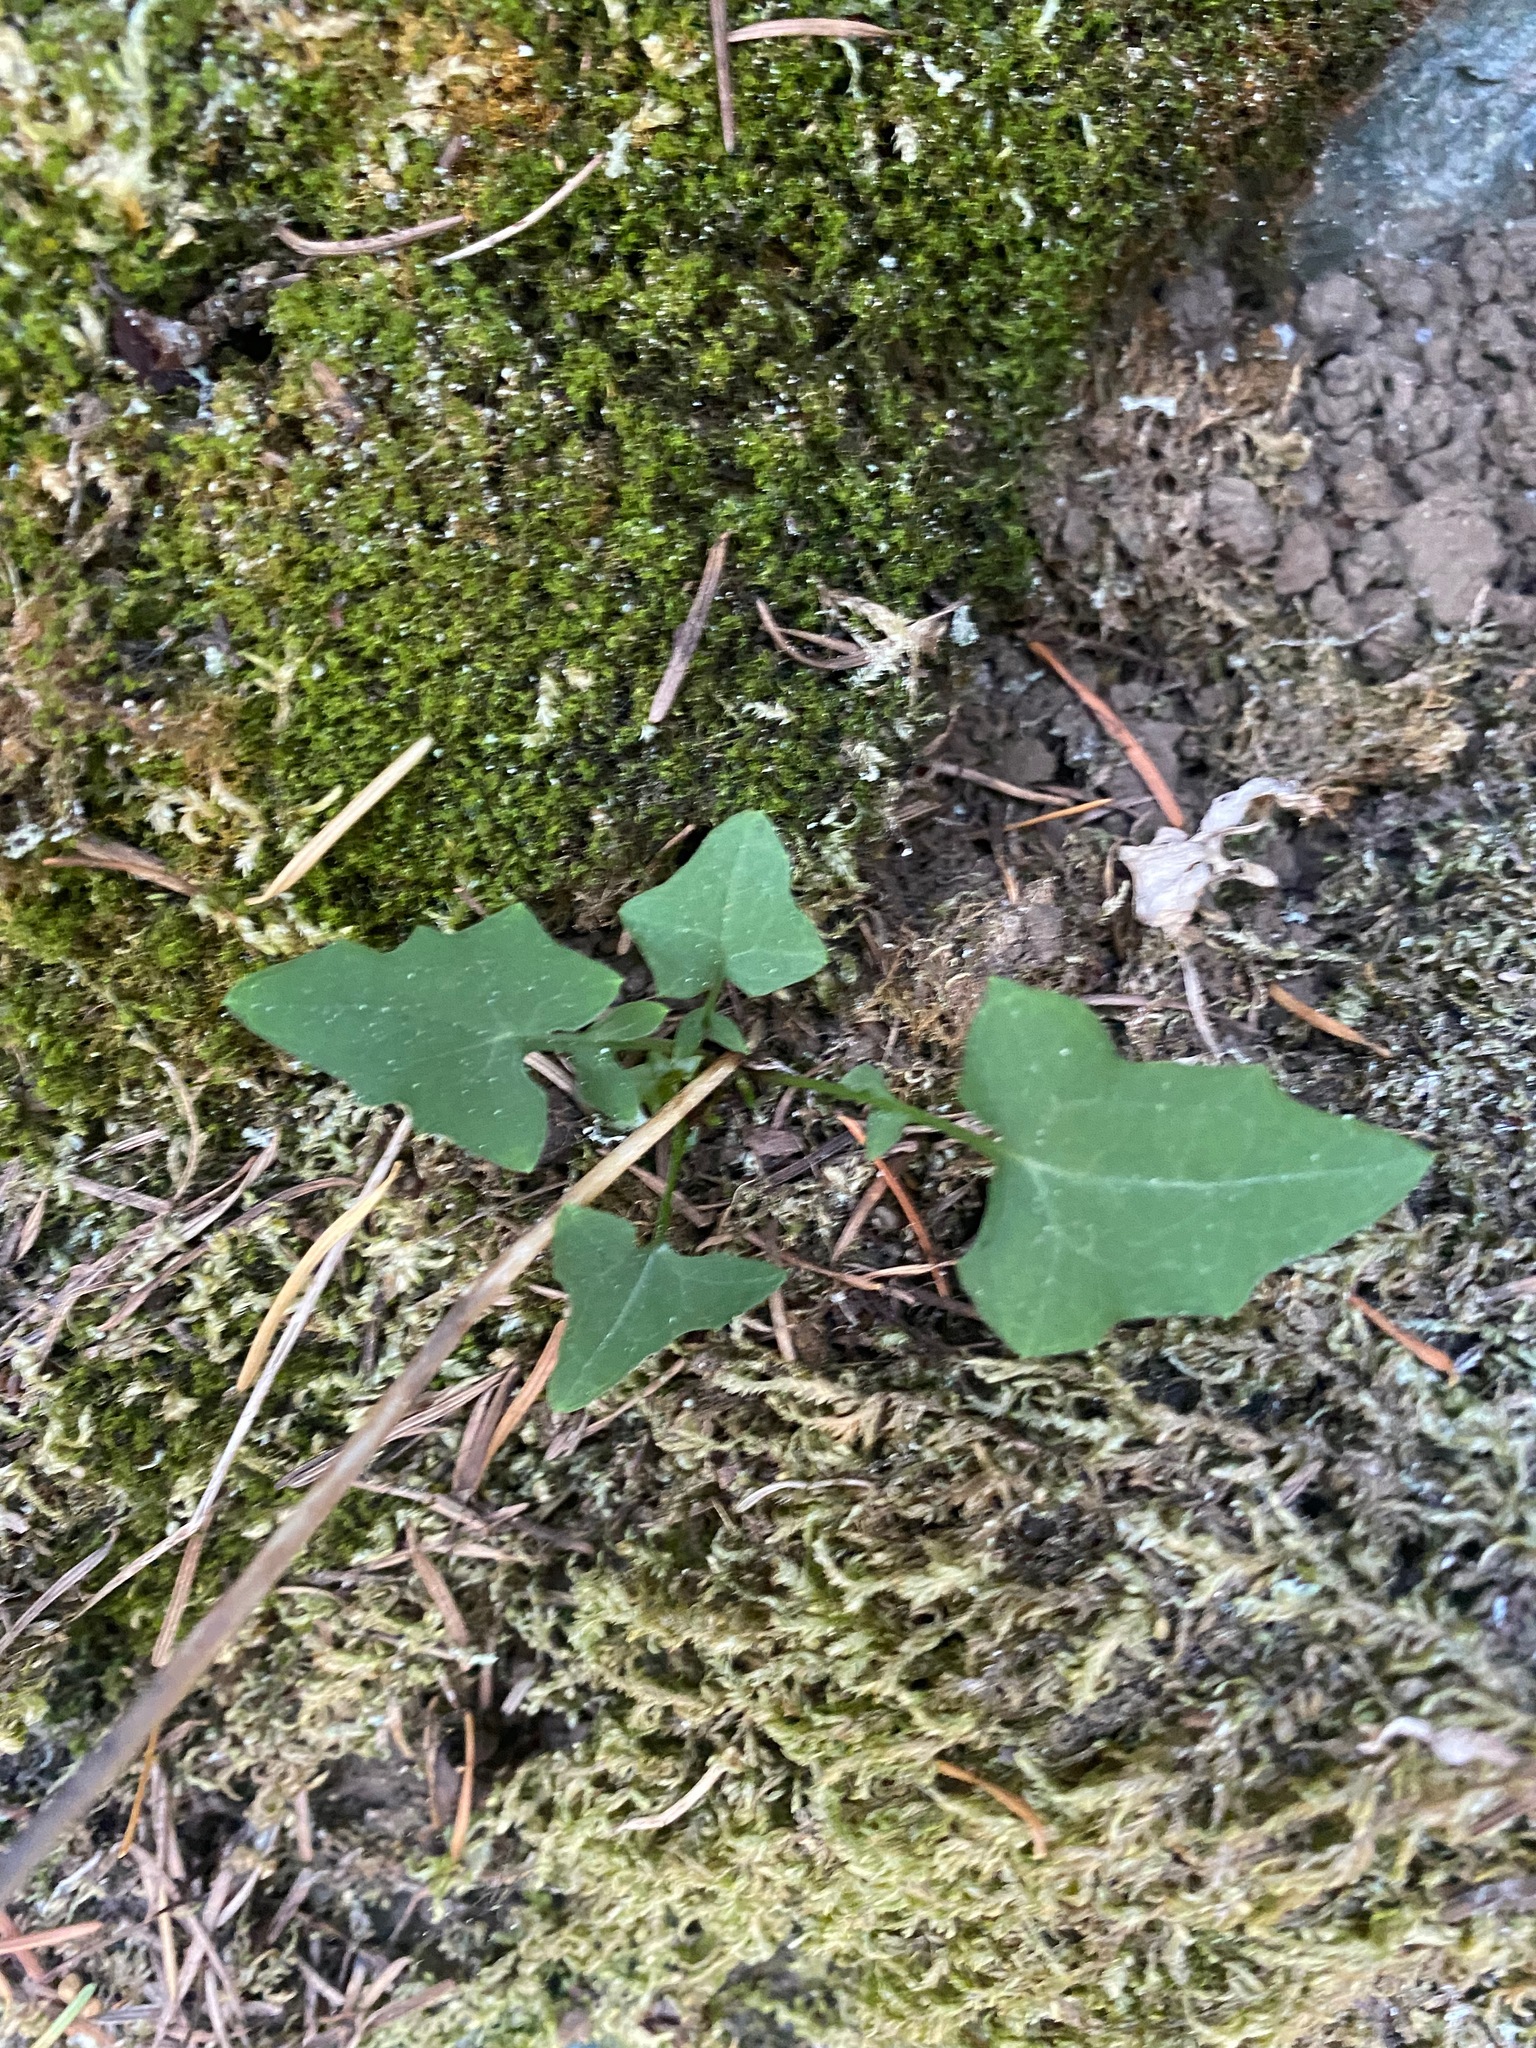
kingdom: Plantae
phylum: Tracheophyta
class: Magnoliopsida
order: Asterales
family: Asteraceae
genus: Mycelis
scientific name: Mycelis muralis
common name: Wall lettuce
